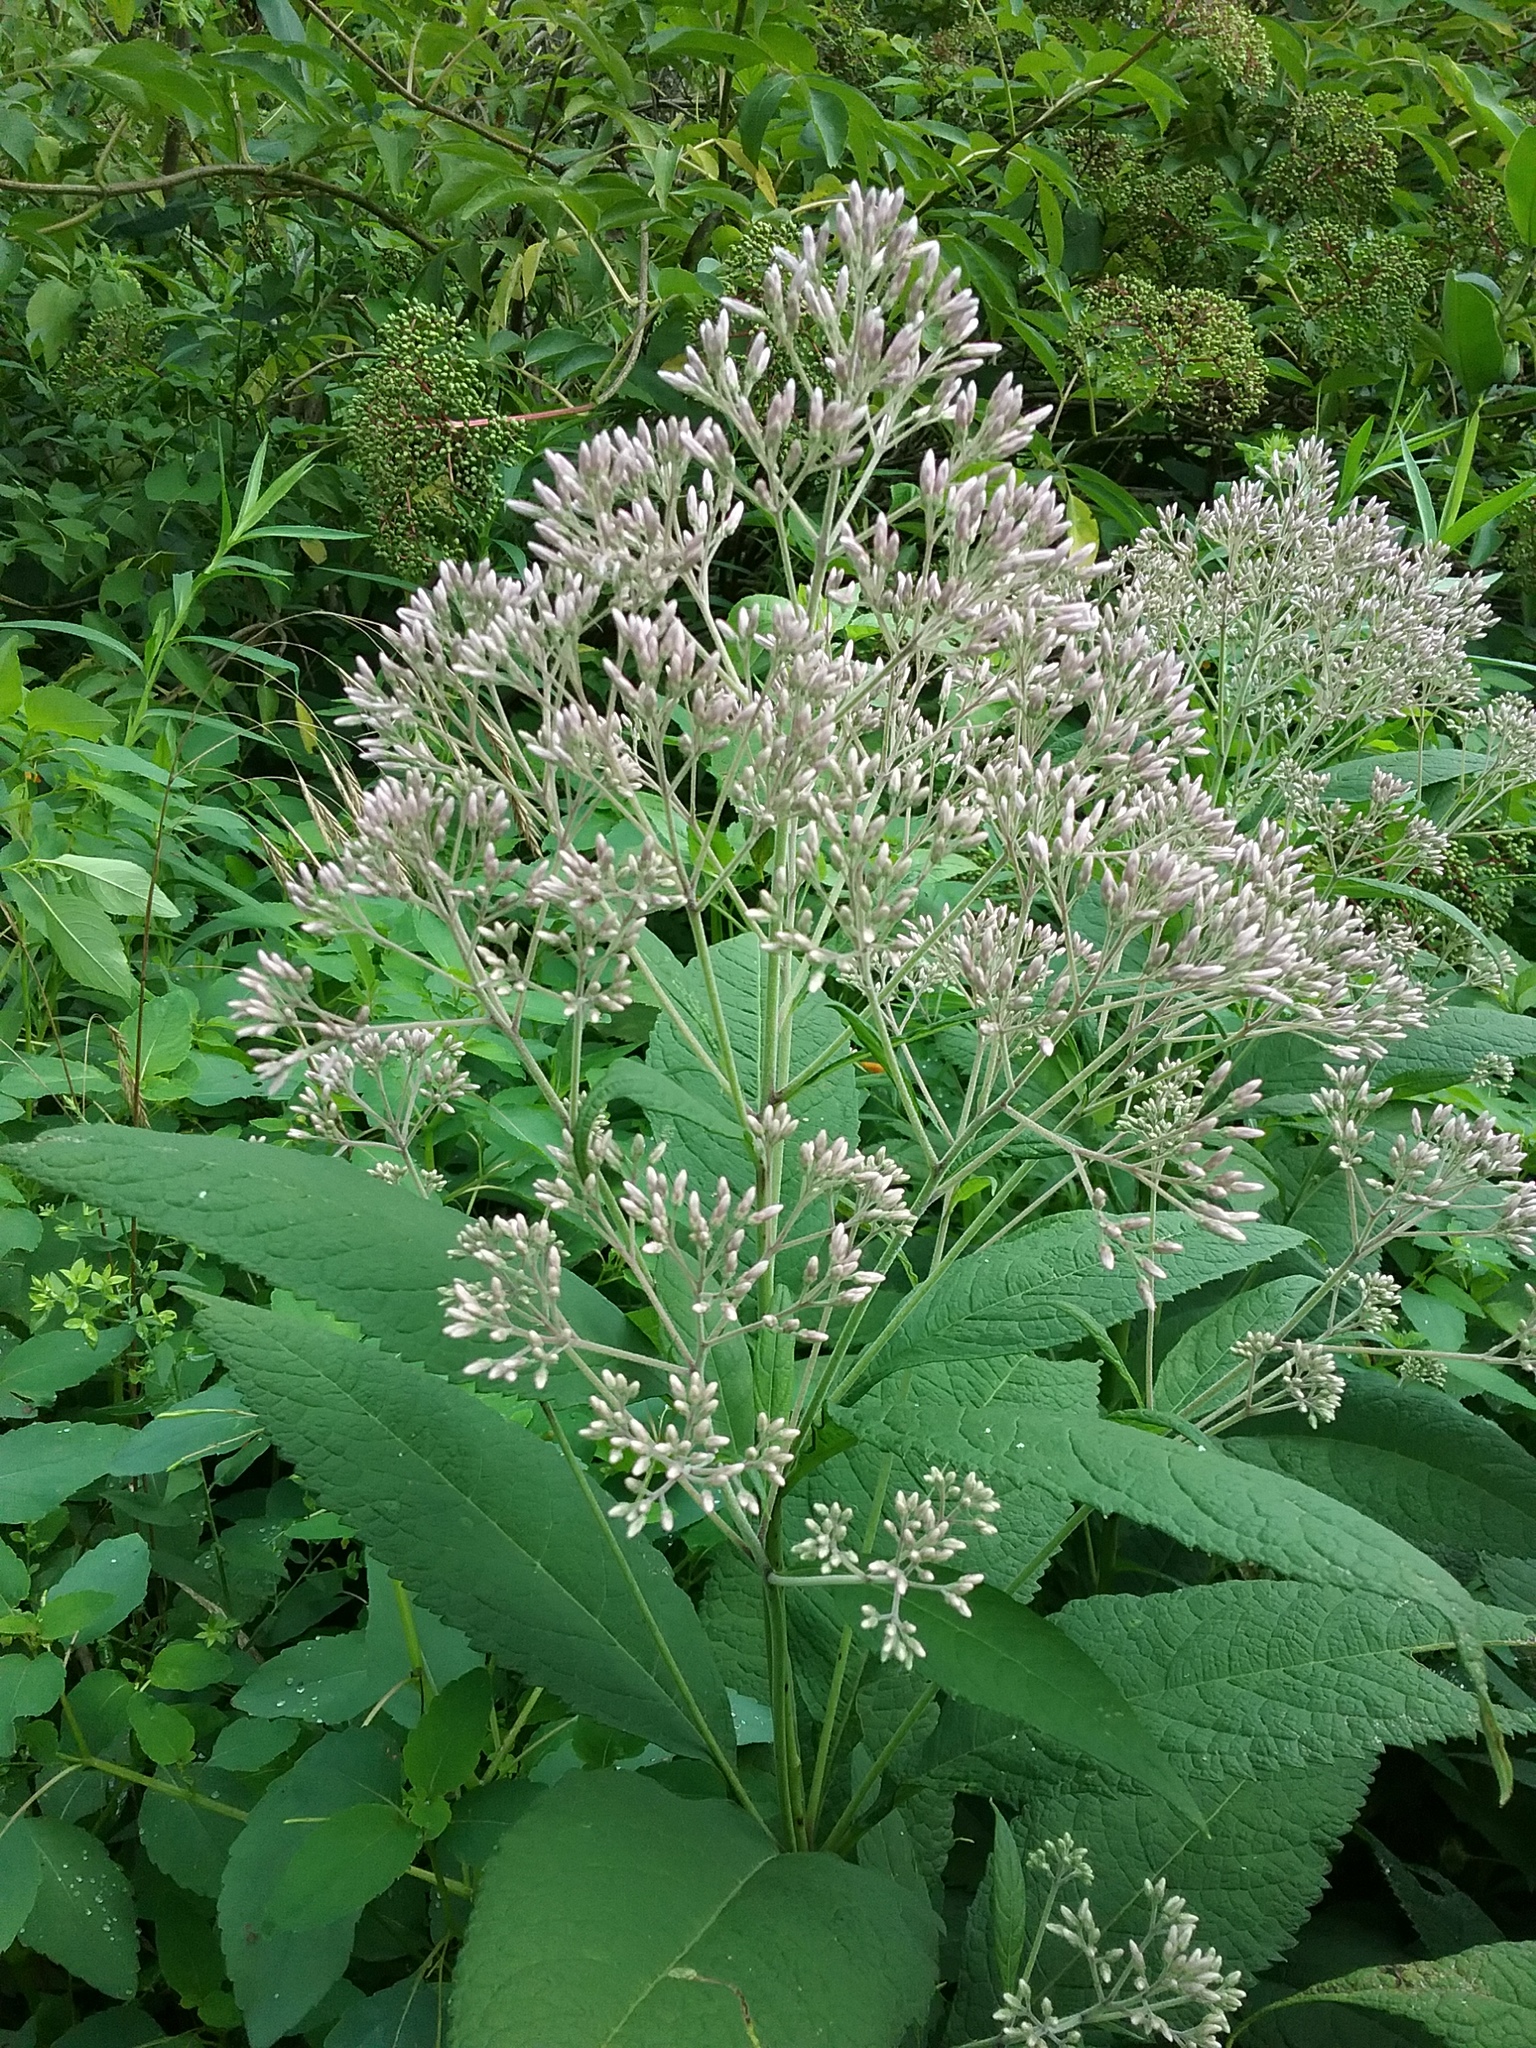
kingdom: Plantae
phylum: Tracheophyta
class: Magnoliopsida
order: Asterales
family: Asteraceae
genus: Eutrochium
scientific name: Eutrochium purpureum
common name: Gravelroot
